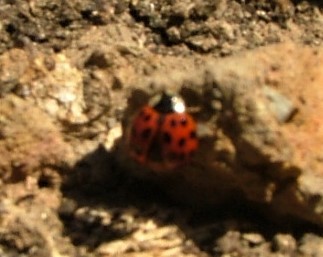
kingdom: Animalia
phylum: Arthropoda
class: Insecta
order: Coleoptera
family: Coccinellidae
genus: Harmonia
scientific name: Harmonia axyridis
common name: Harlequin ladybird
